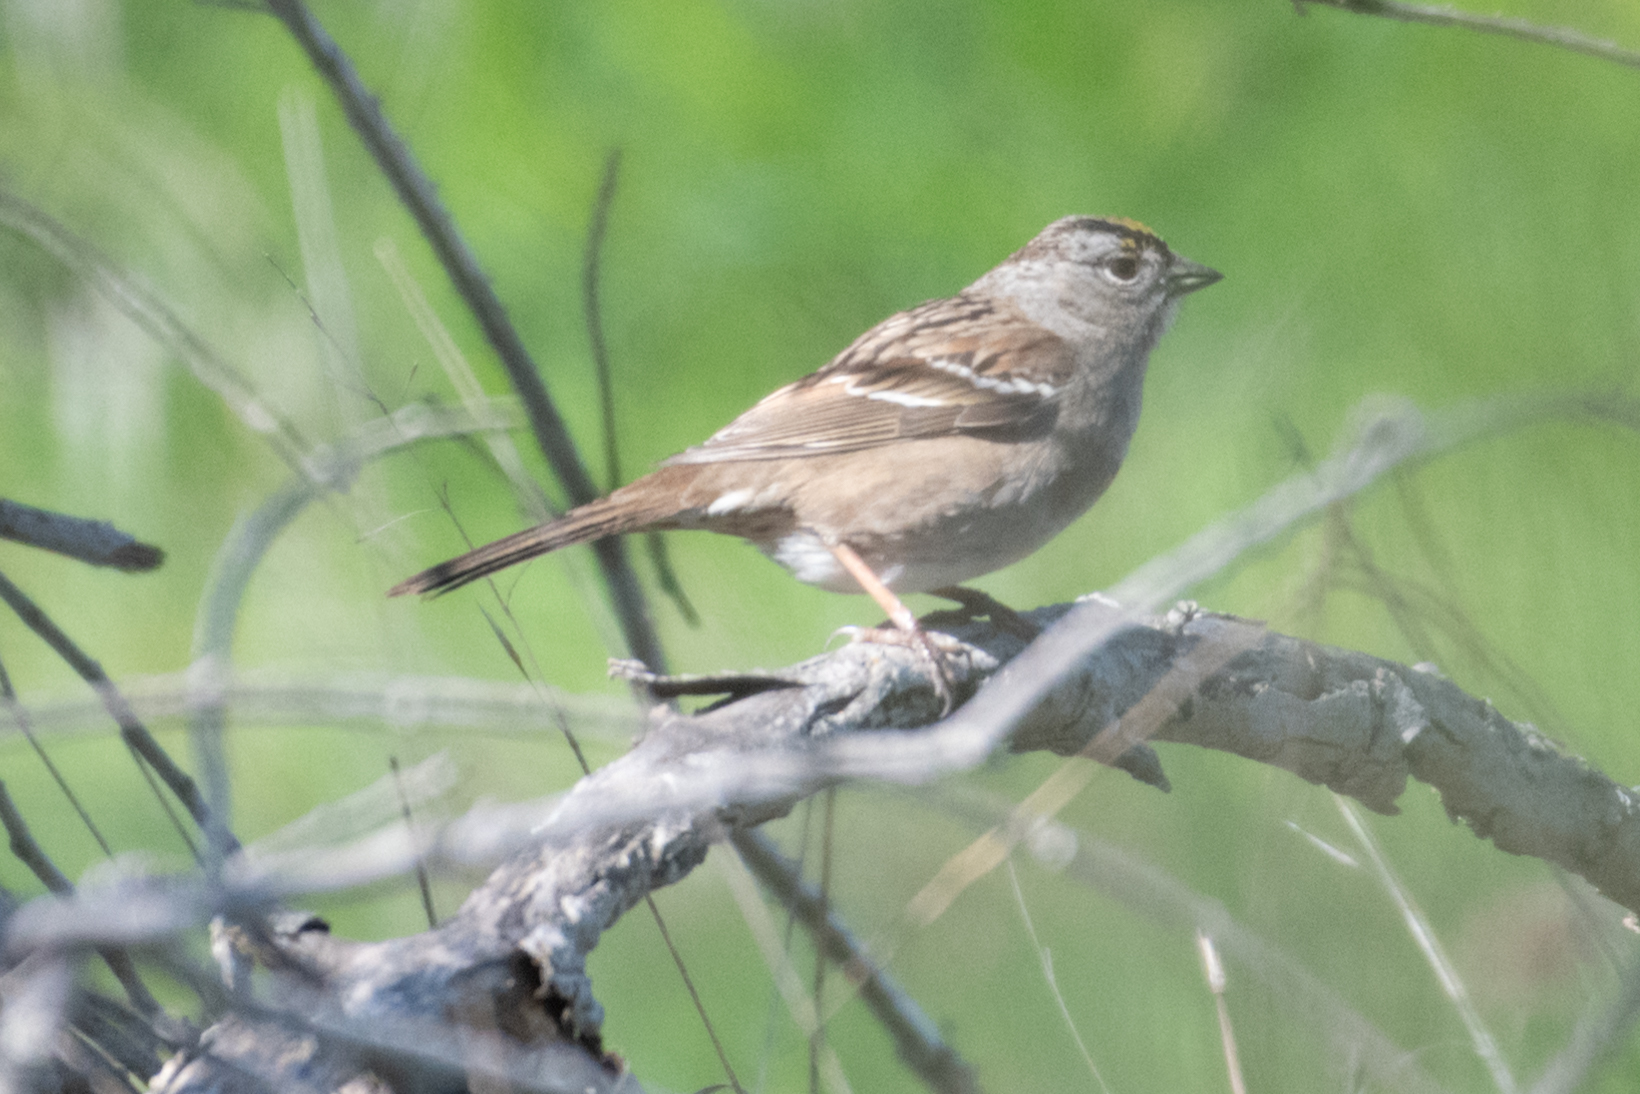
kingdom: Animalia
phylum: Chordata
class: Aves
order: Passeriformes
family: Passerellidae
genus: Zonotrichia
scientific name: Zonotrichia atricapilla
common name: Golden-crowned sparrow
